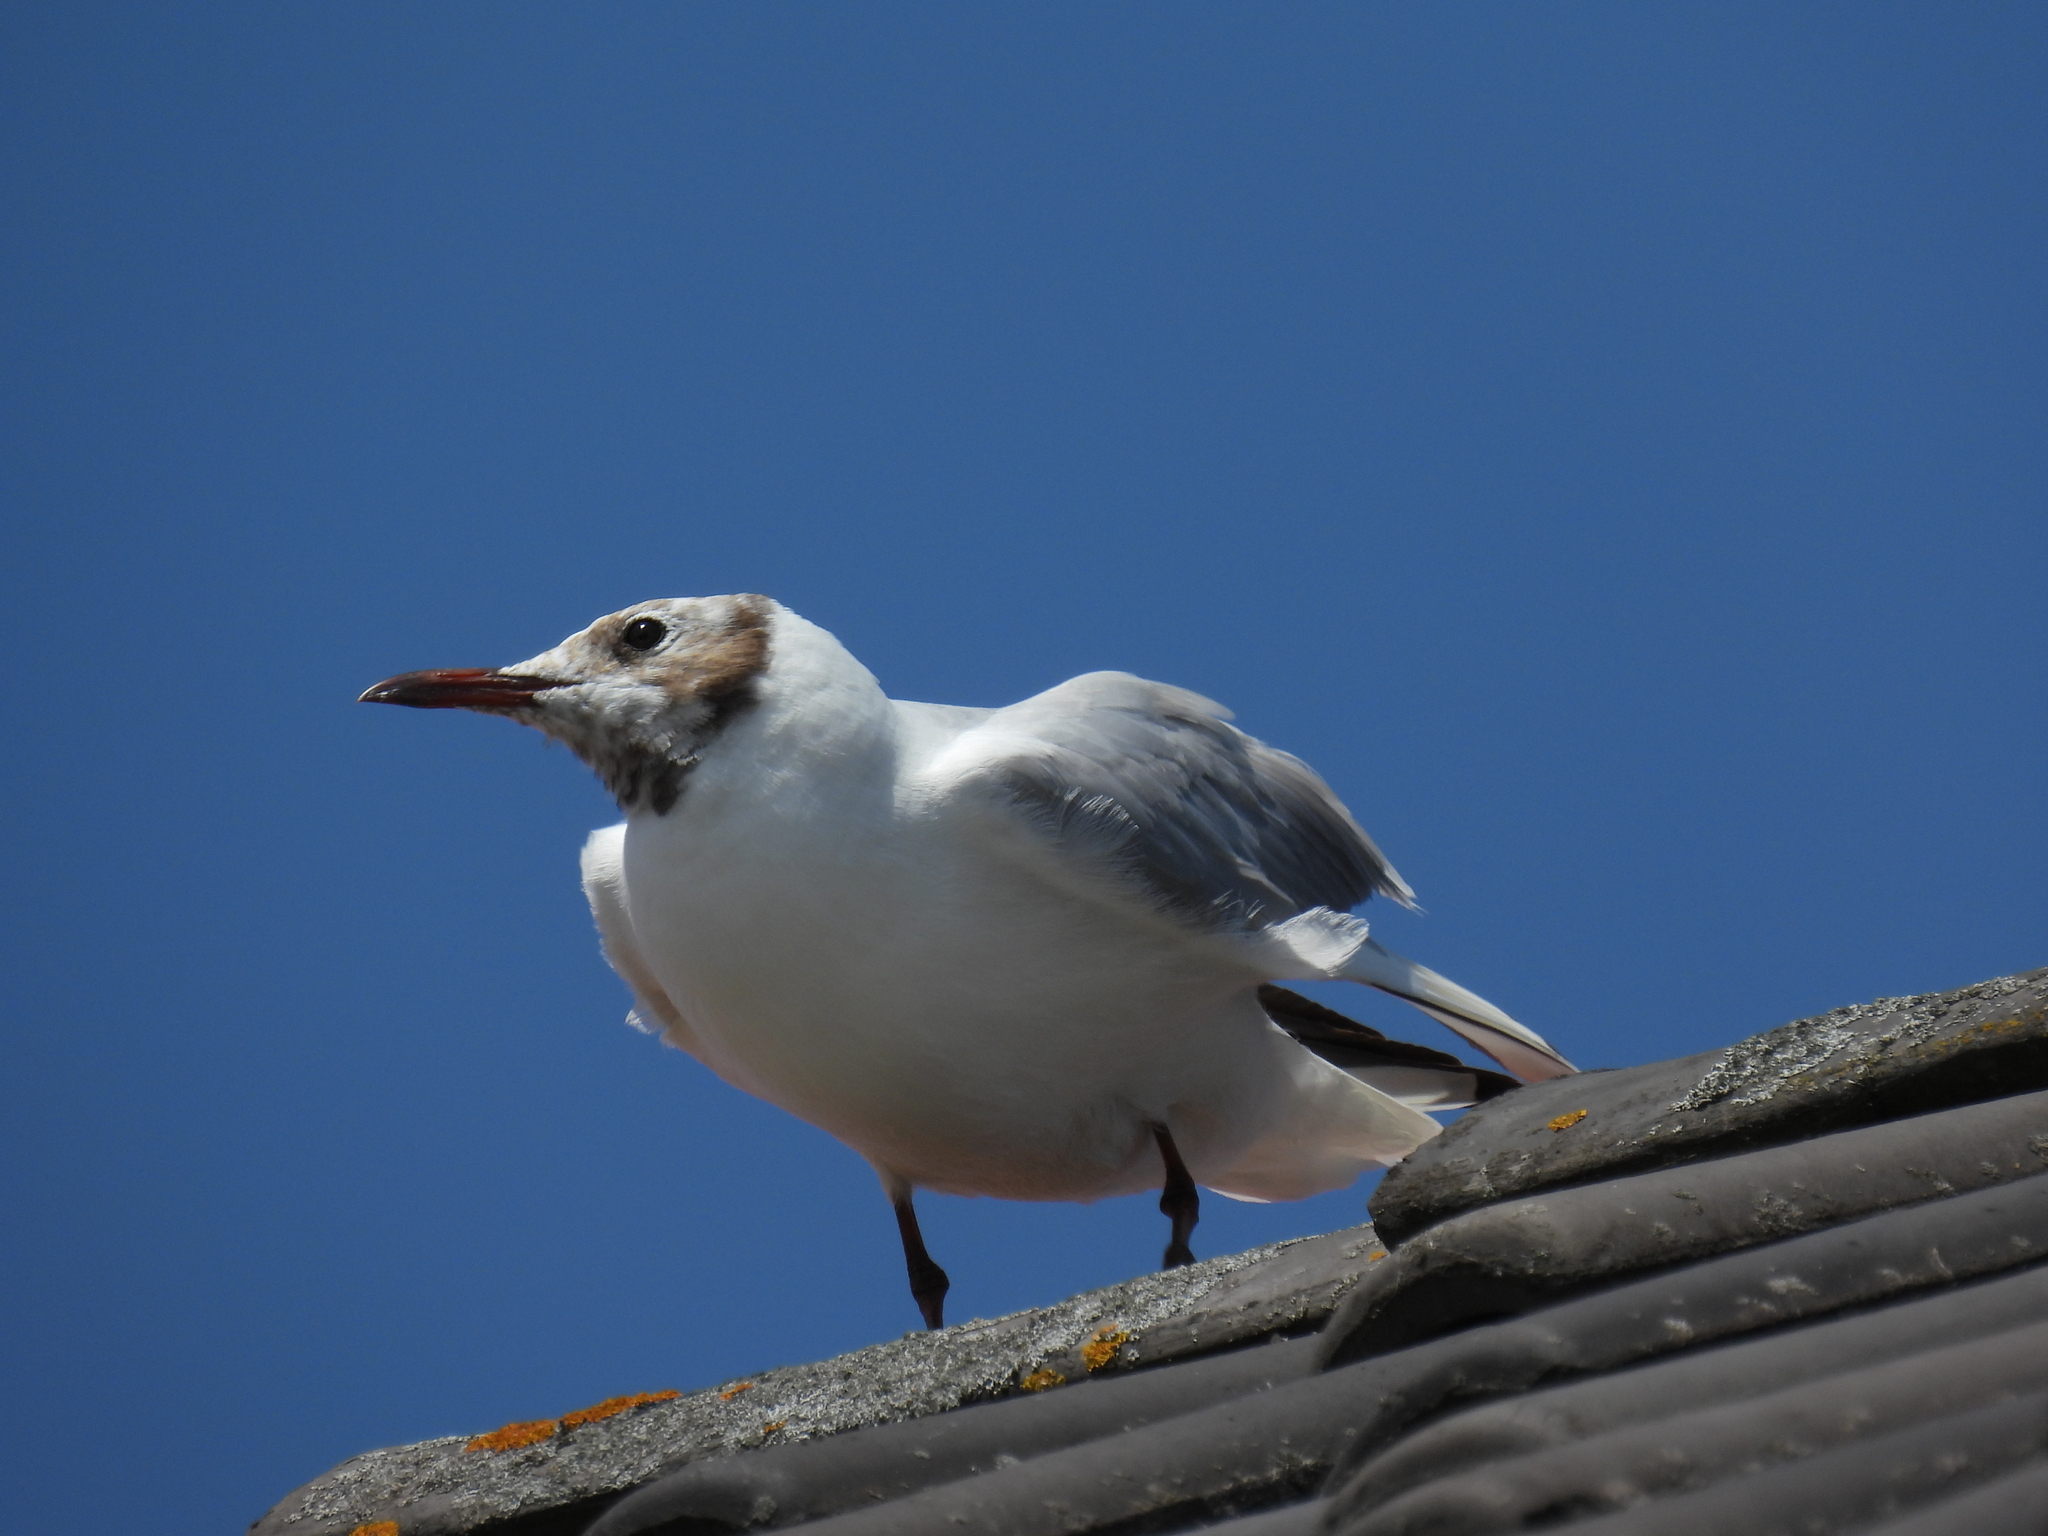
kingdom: Animalia
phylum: Chordata
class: Aves
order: Charadriiformes
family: Laridae
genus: Chroicocephalus
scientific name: Chroicocephalus ridibundus
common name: Black-headed gull
